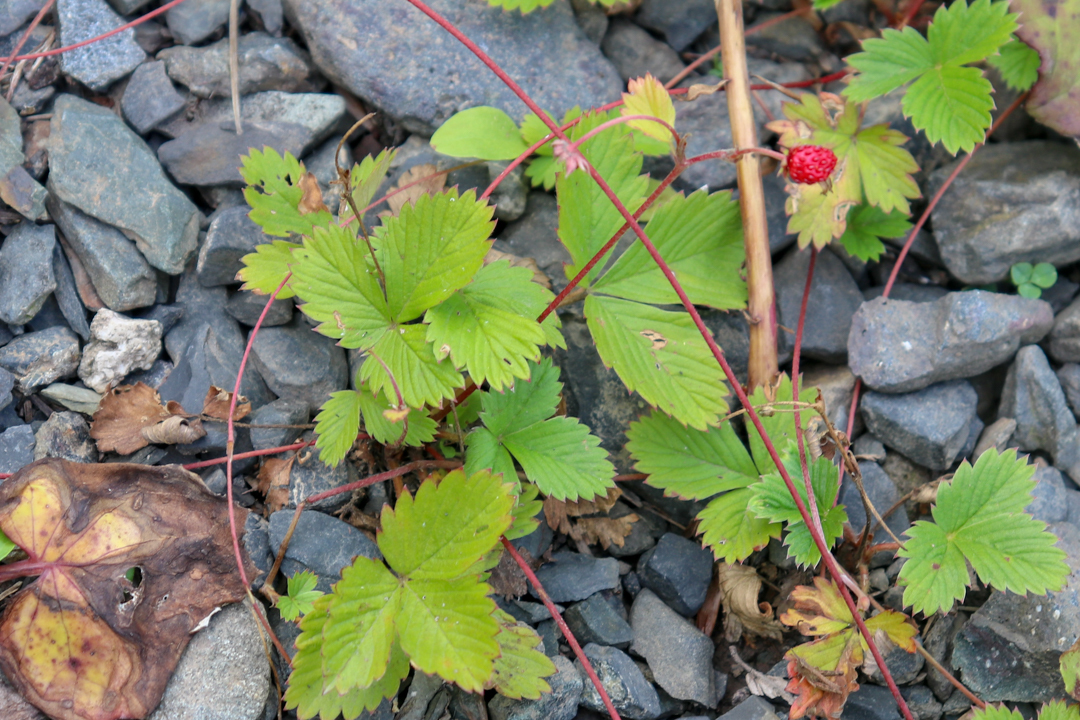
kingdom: Plantae
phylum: Tracheophyta
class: Magnoliopsida
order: Rosales
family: Rosaceae
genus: Fragaria
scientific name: Fragaria vesca
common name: Wild strawberry
